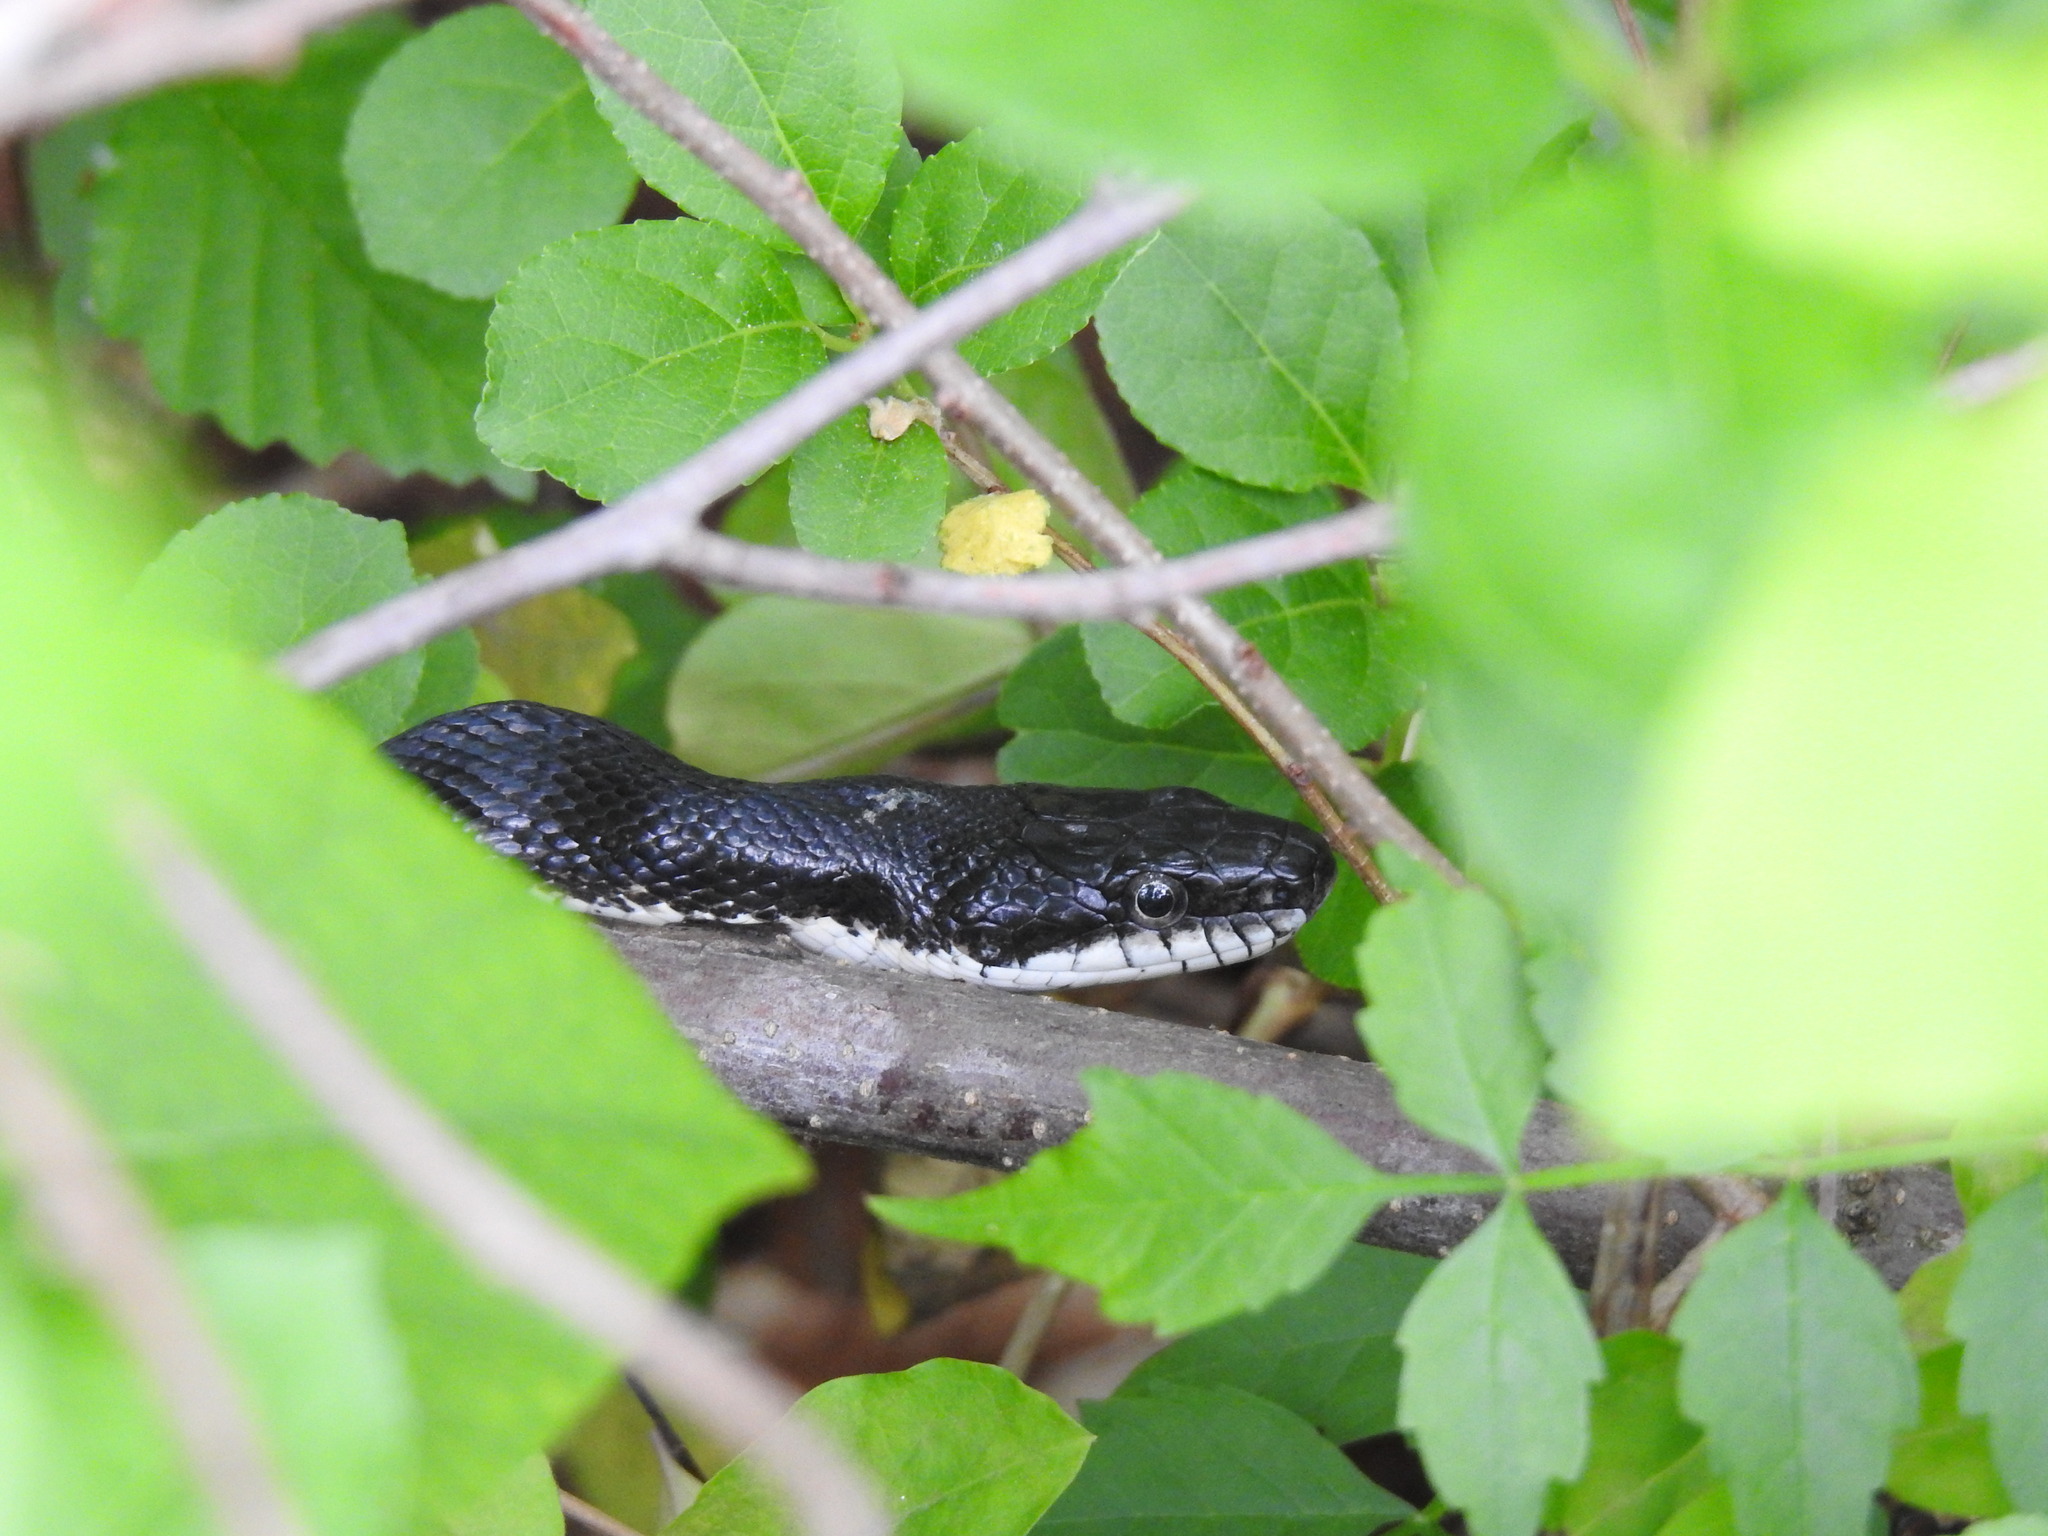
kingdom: Animalia
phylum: Chordata
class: Squamata
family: Colubridae
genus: Pantherophis
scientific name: Pantherophis
